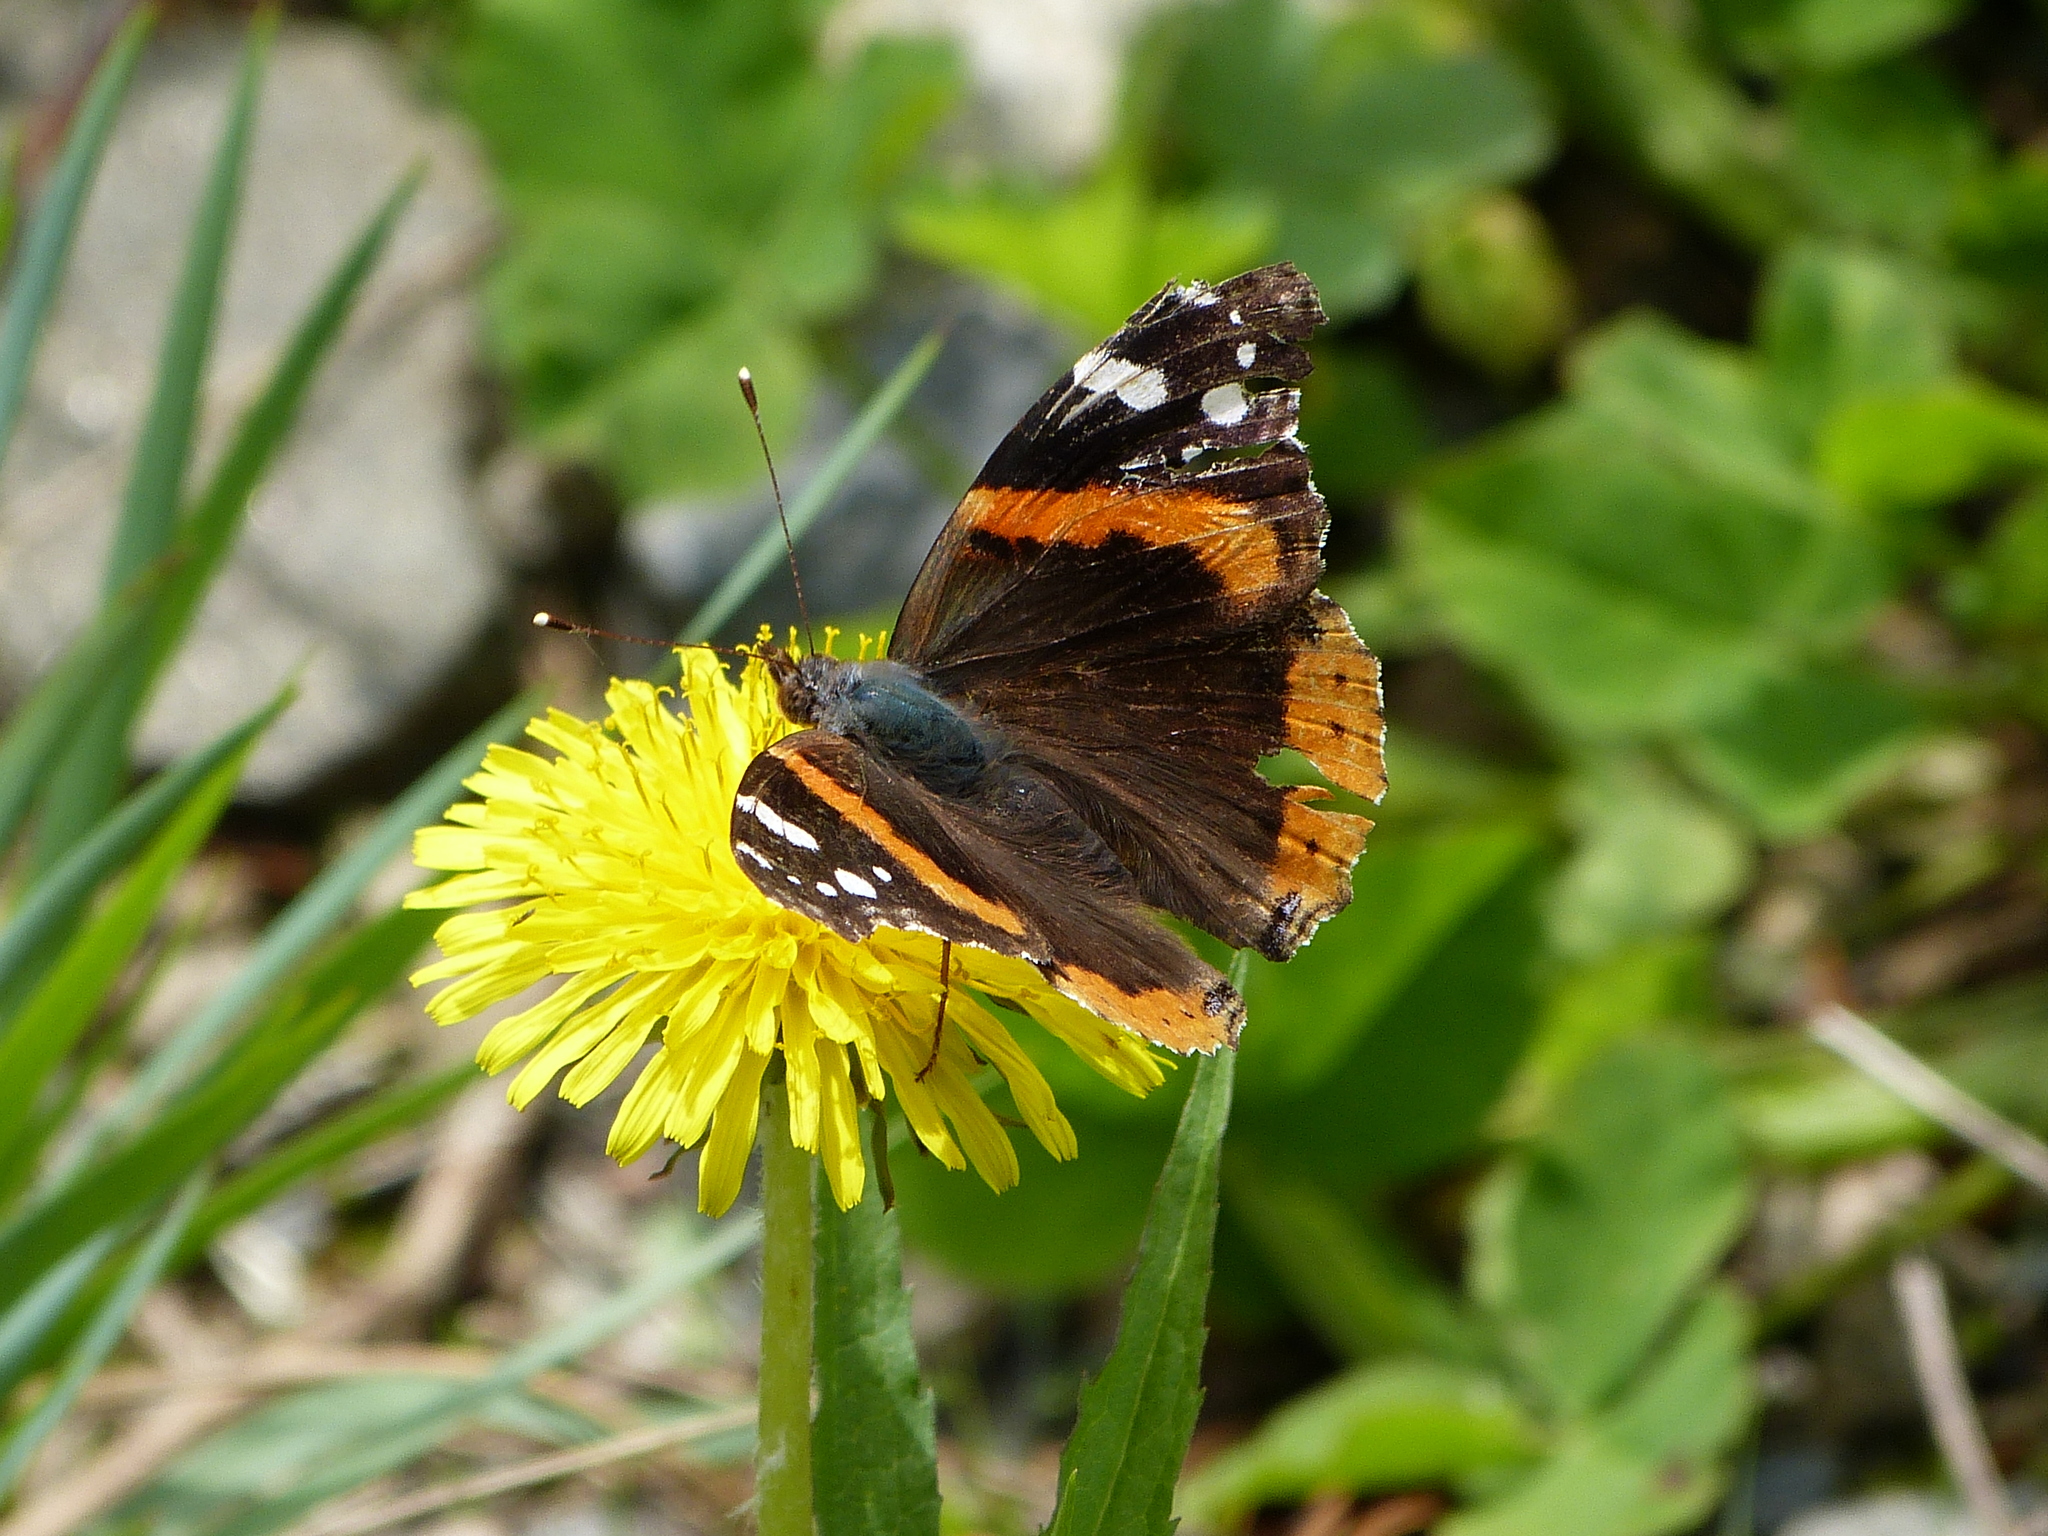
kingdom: Animalia
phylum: Arthropoda
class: Insecta
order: Lepidoptera
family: Nymphalidae
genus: Vanessa
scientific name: Vanessa atalanta
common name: Red admiral
